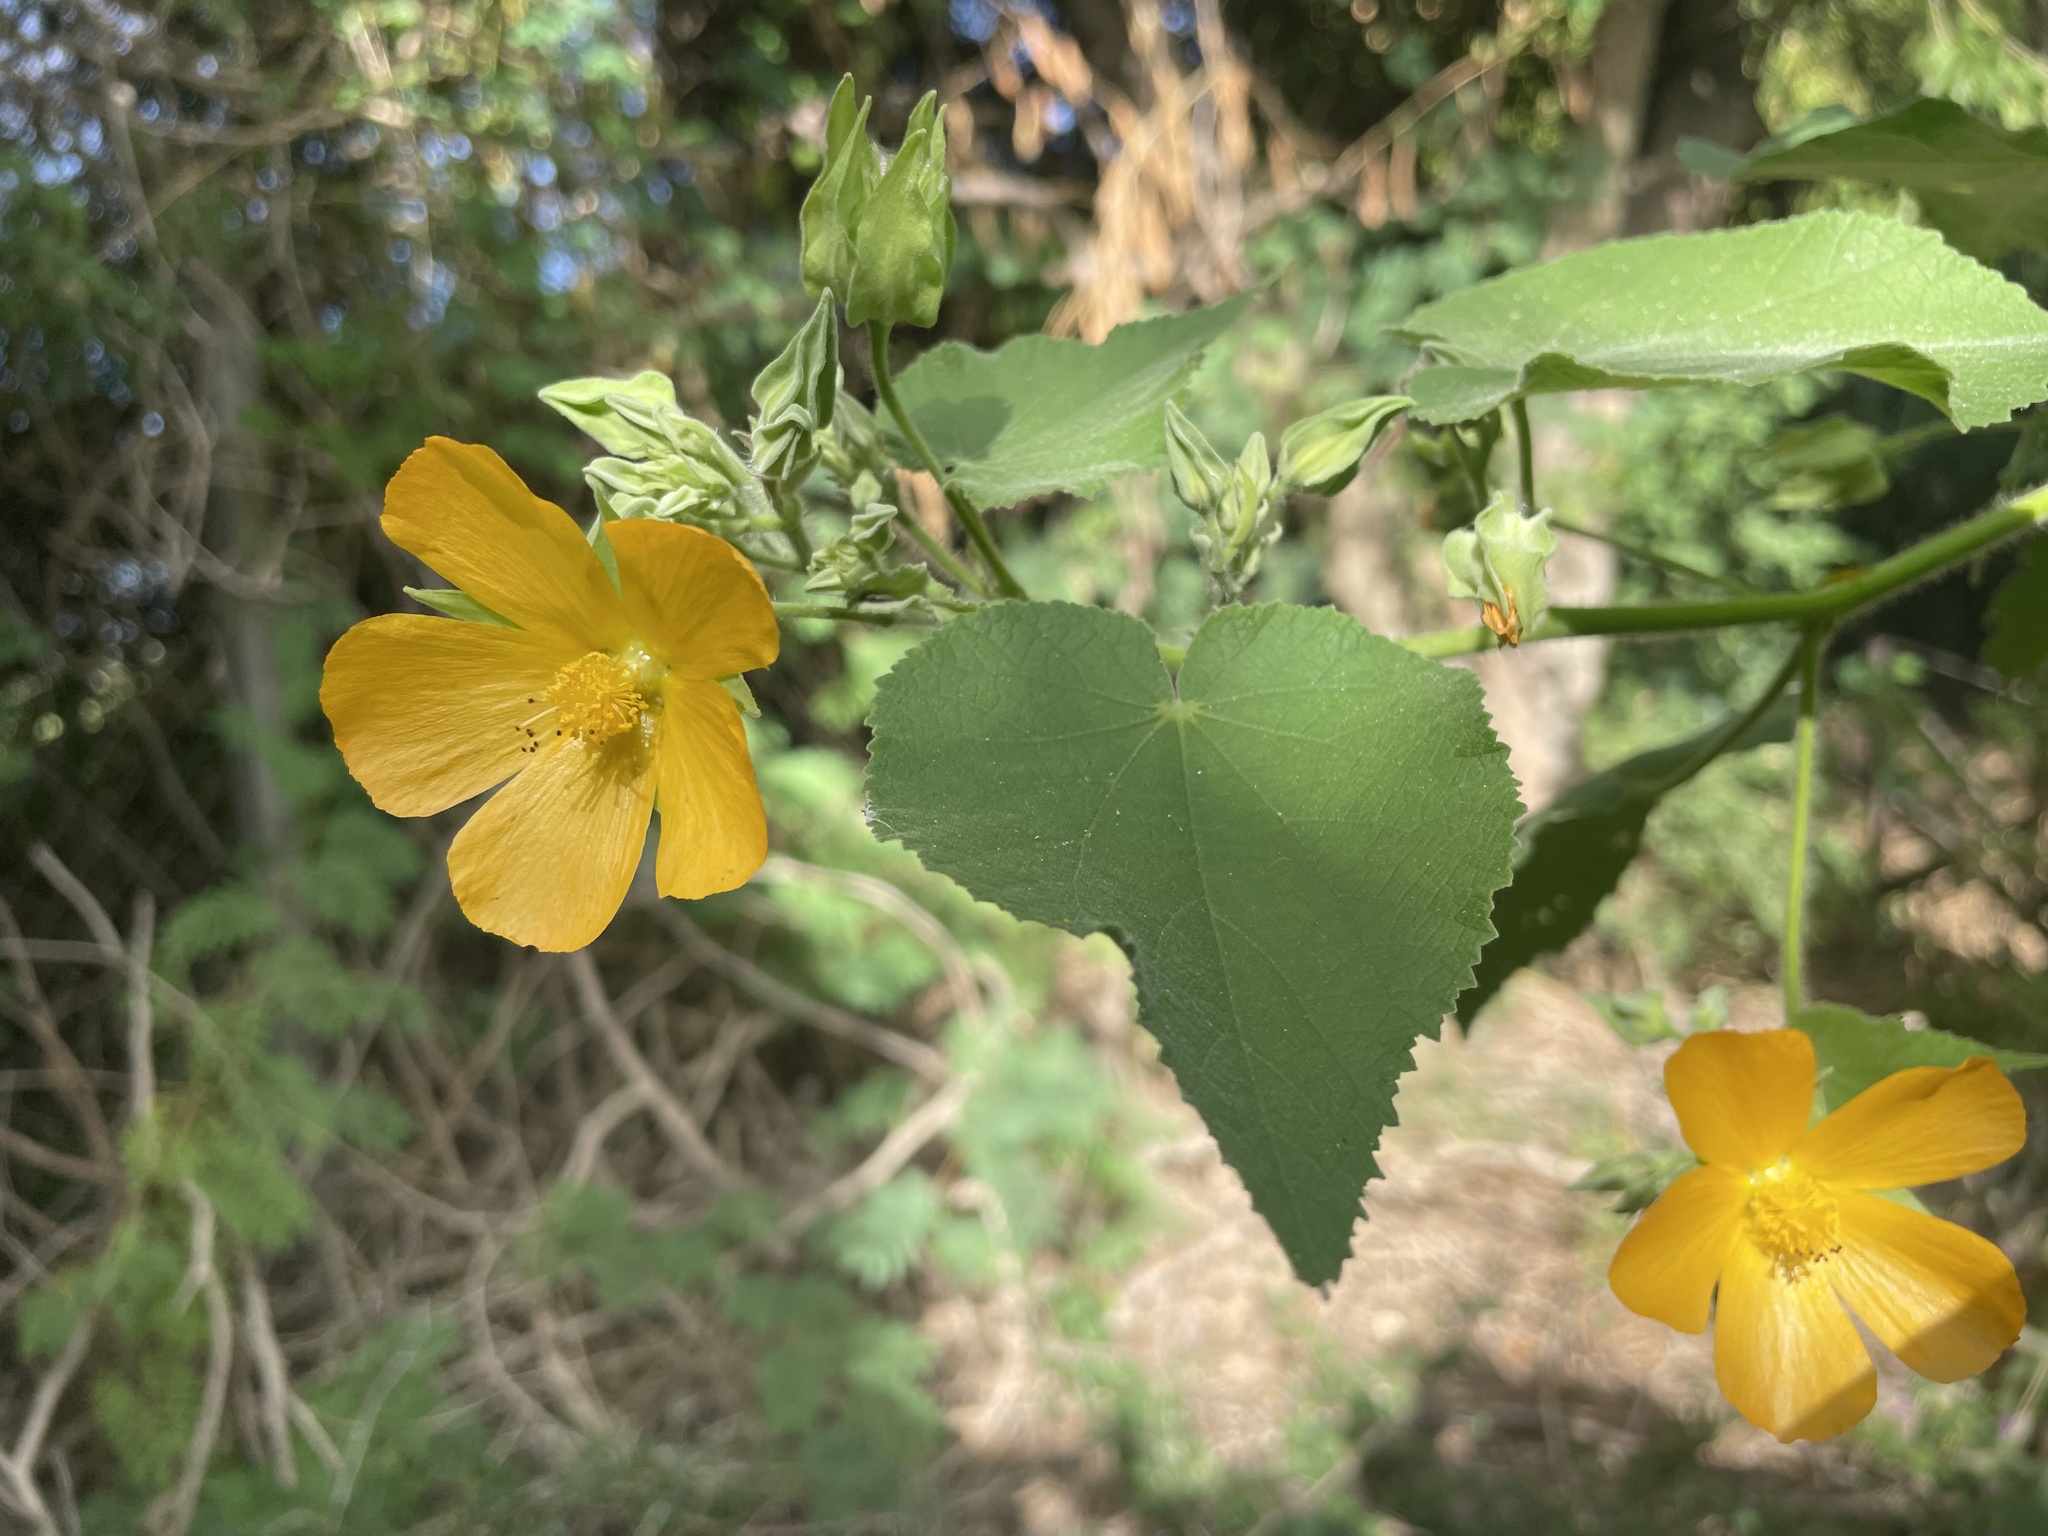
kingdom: Plantae
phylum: Tracheophyta
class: Magnoliopsida
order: Malvales
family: Malvaceae
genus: Abutilon
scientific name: Abutilon grandifolium
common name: Hairy abutilon
